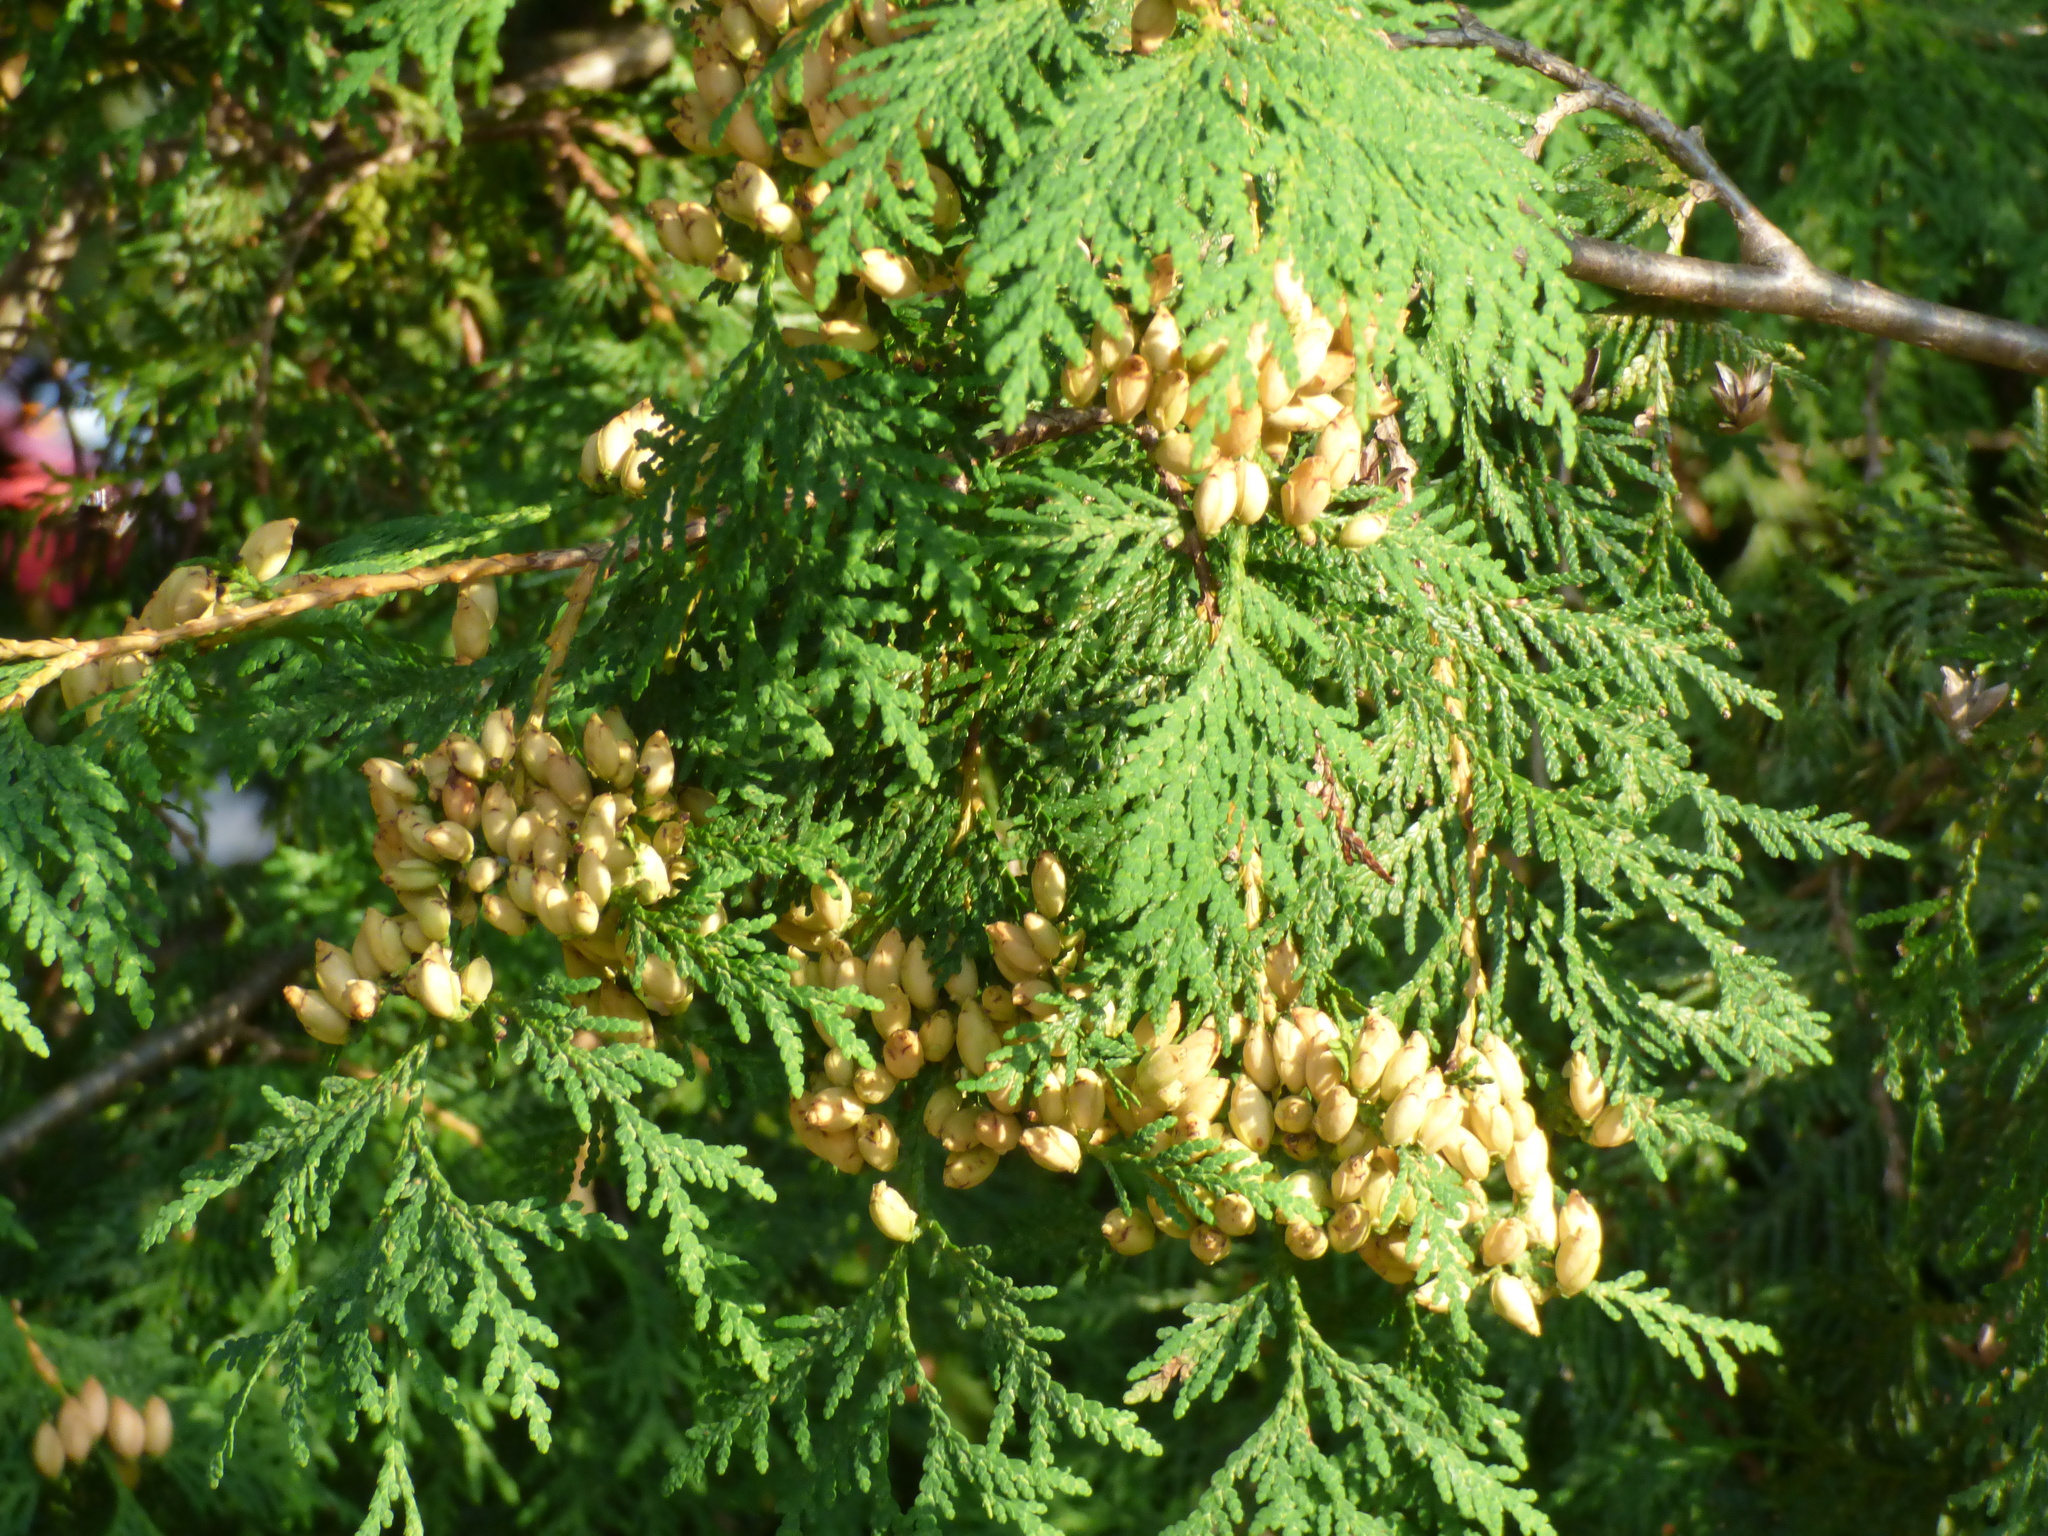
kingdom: Plantae
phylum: Tracheophyta
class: Pinopsida
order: Pinales
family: Cupressaceae
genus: Thuja
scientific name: Thuja occidentalis
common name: Northern white-cedar
